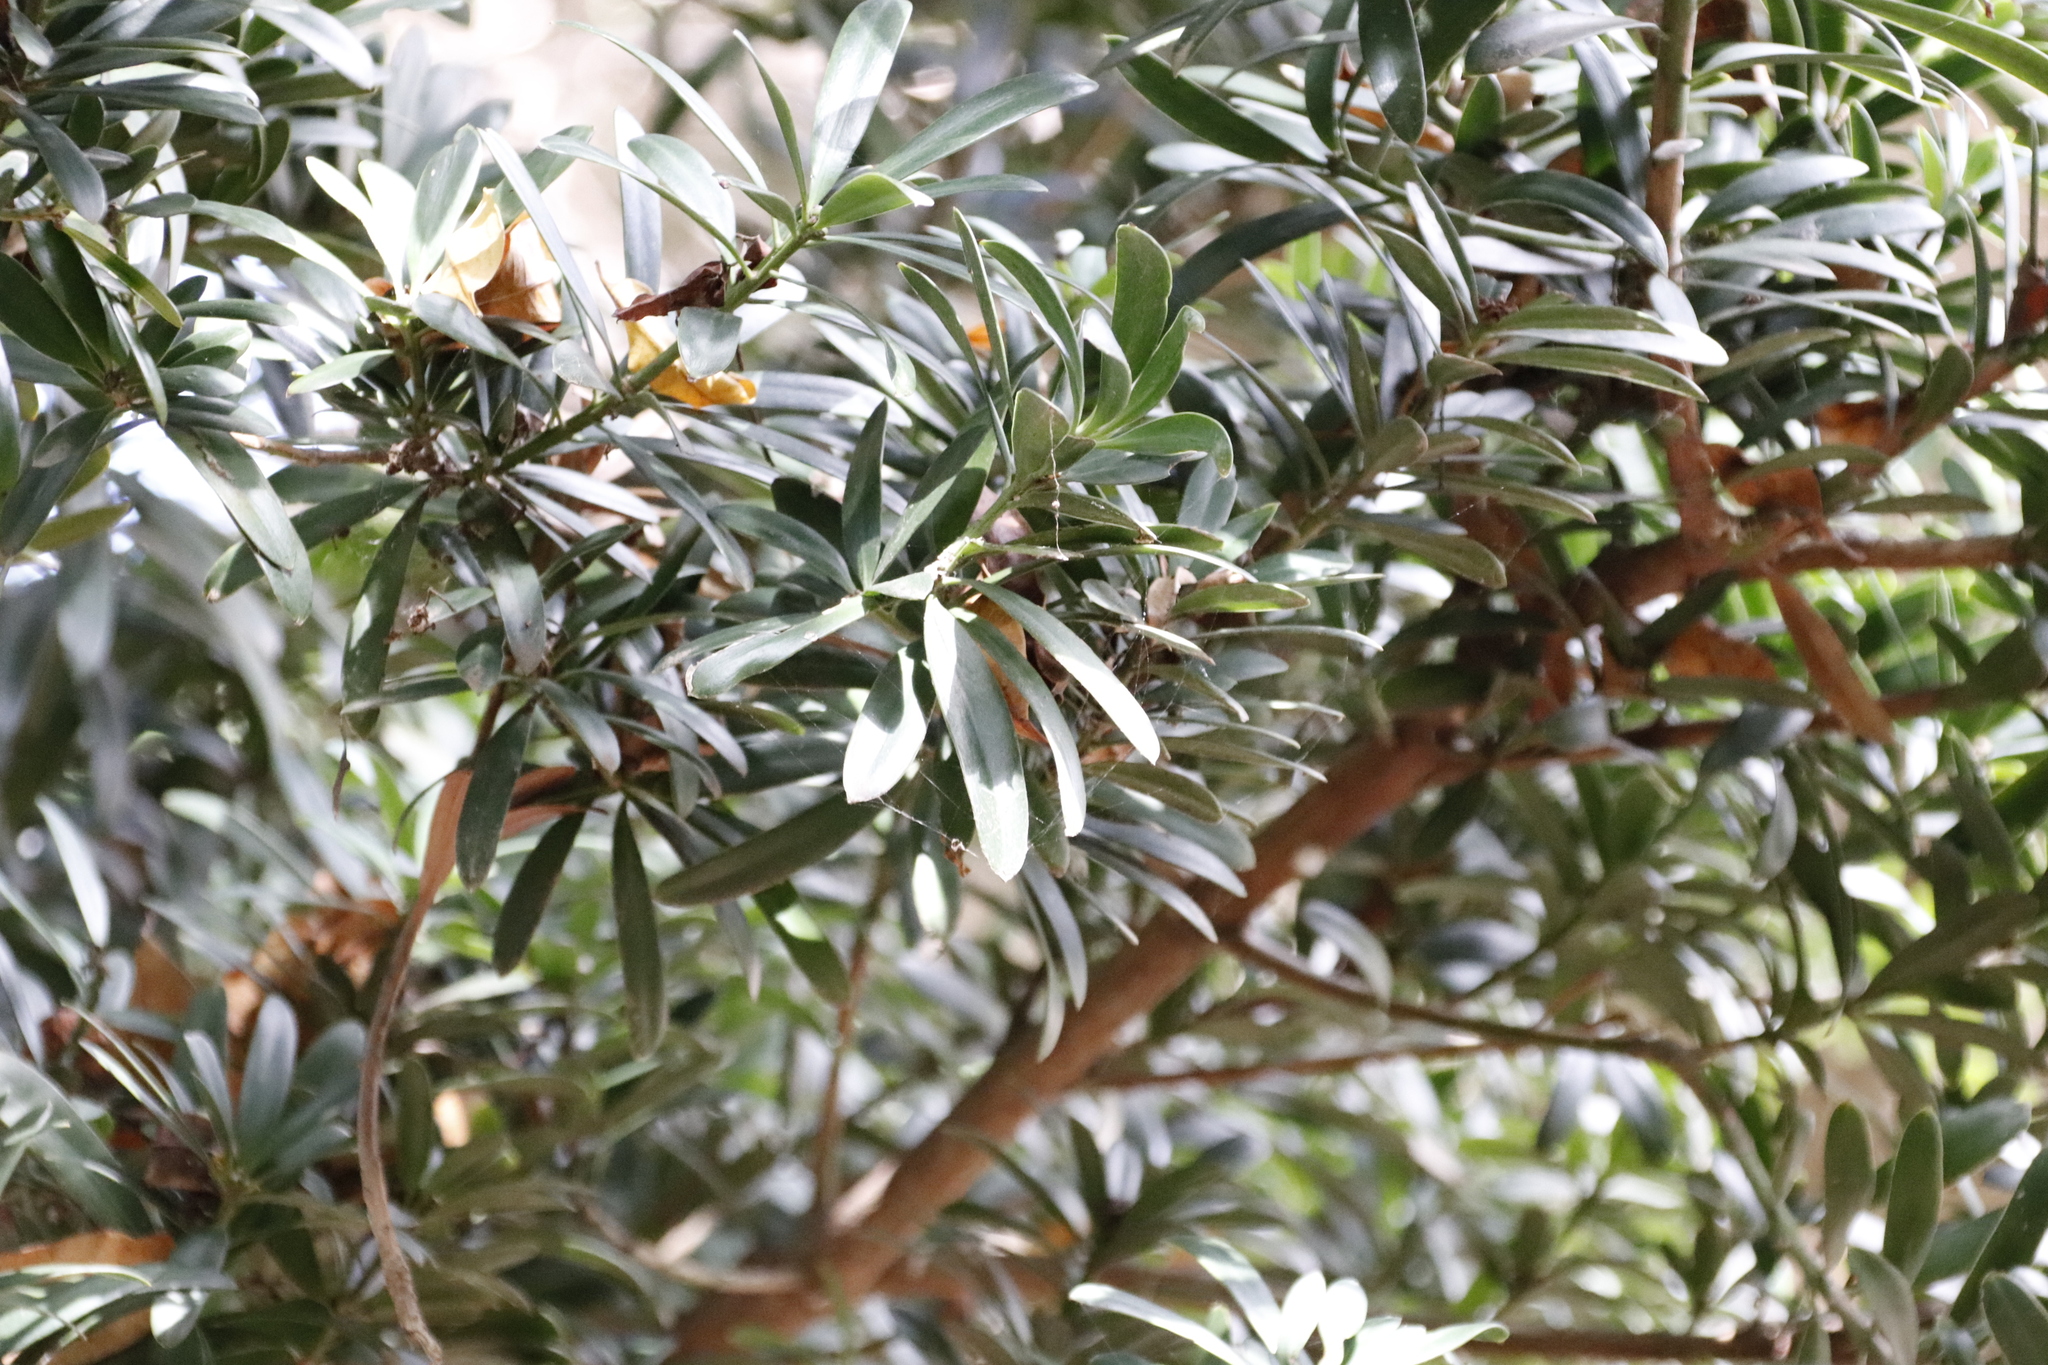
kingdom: Plantae
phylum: Tracheophyta
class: Pinopsida
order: Pinales
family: Podocarpaceae
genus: Podocarpus
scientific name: Podocarpus latifolius
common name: True yellowwood
